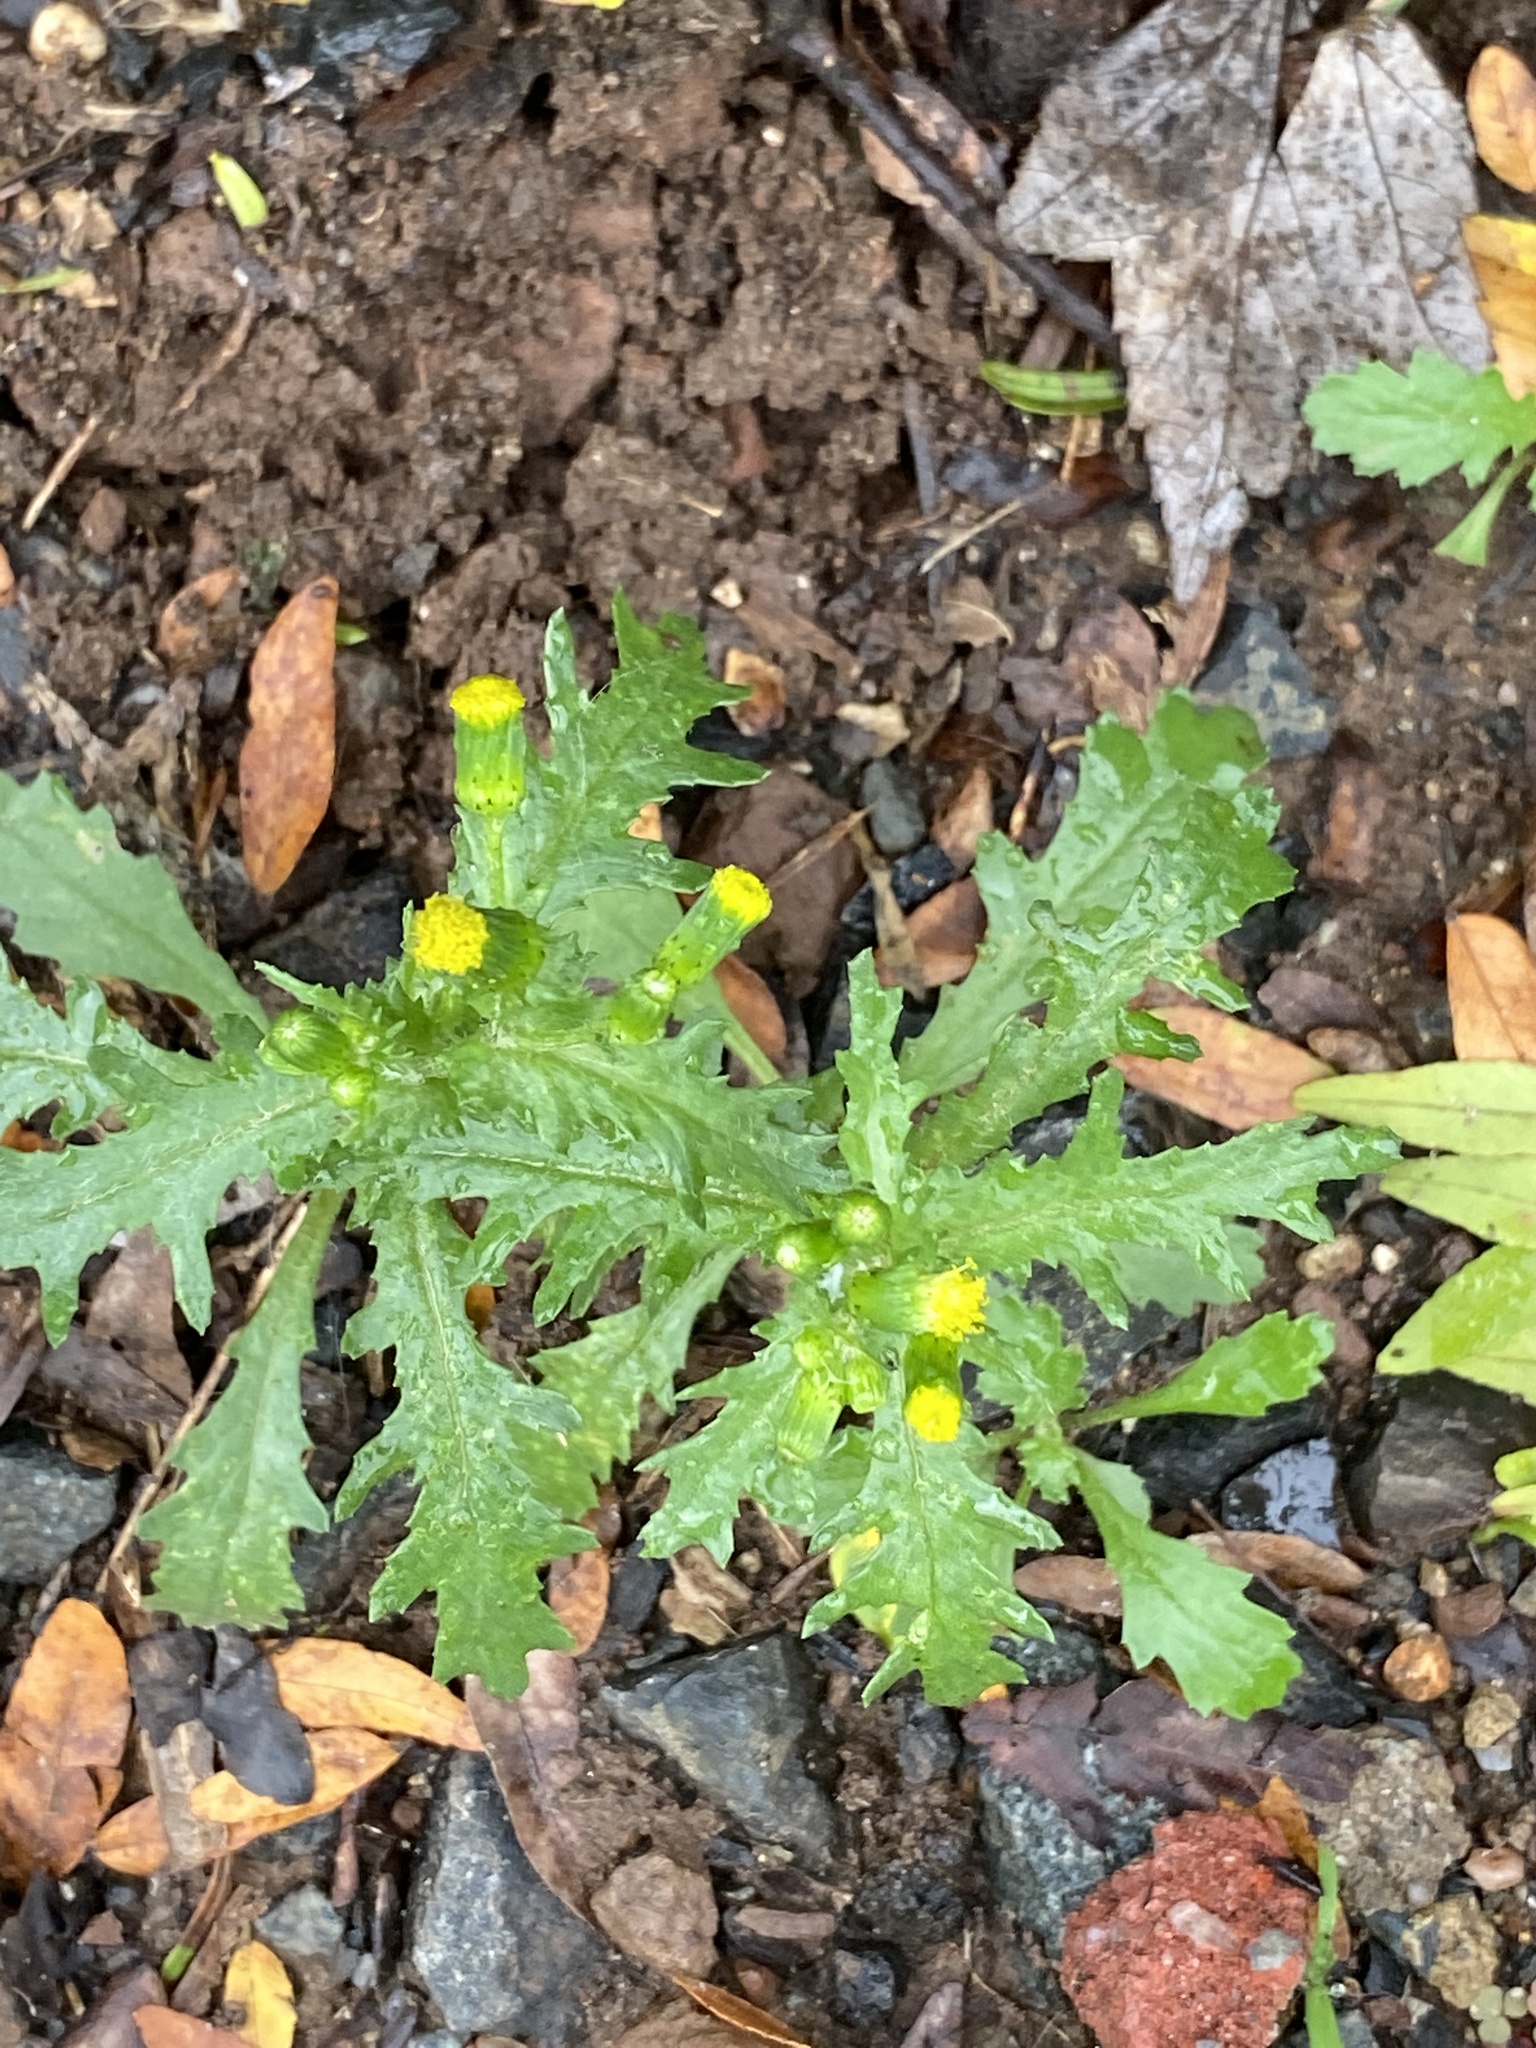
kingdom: Plantae
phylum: Tracheophyta
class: Magnoliopsida
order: Asterales
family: Asteraceae
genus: Senecio
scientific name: Senecio vulgaris
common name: Old-man-in-the-spring
